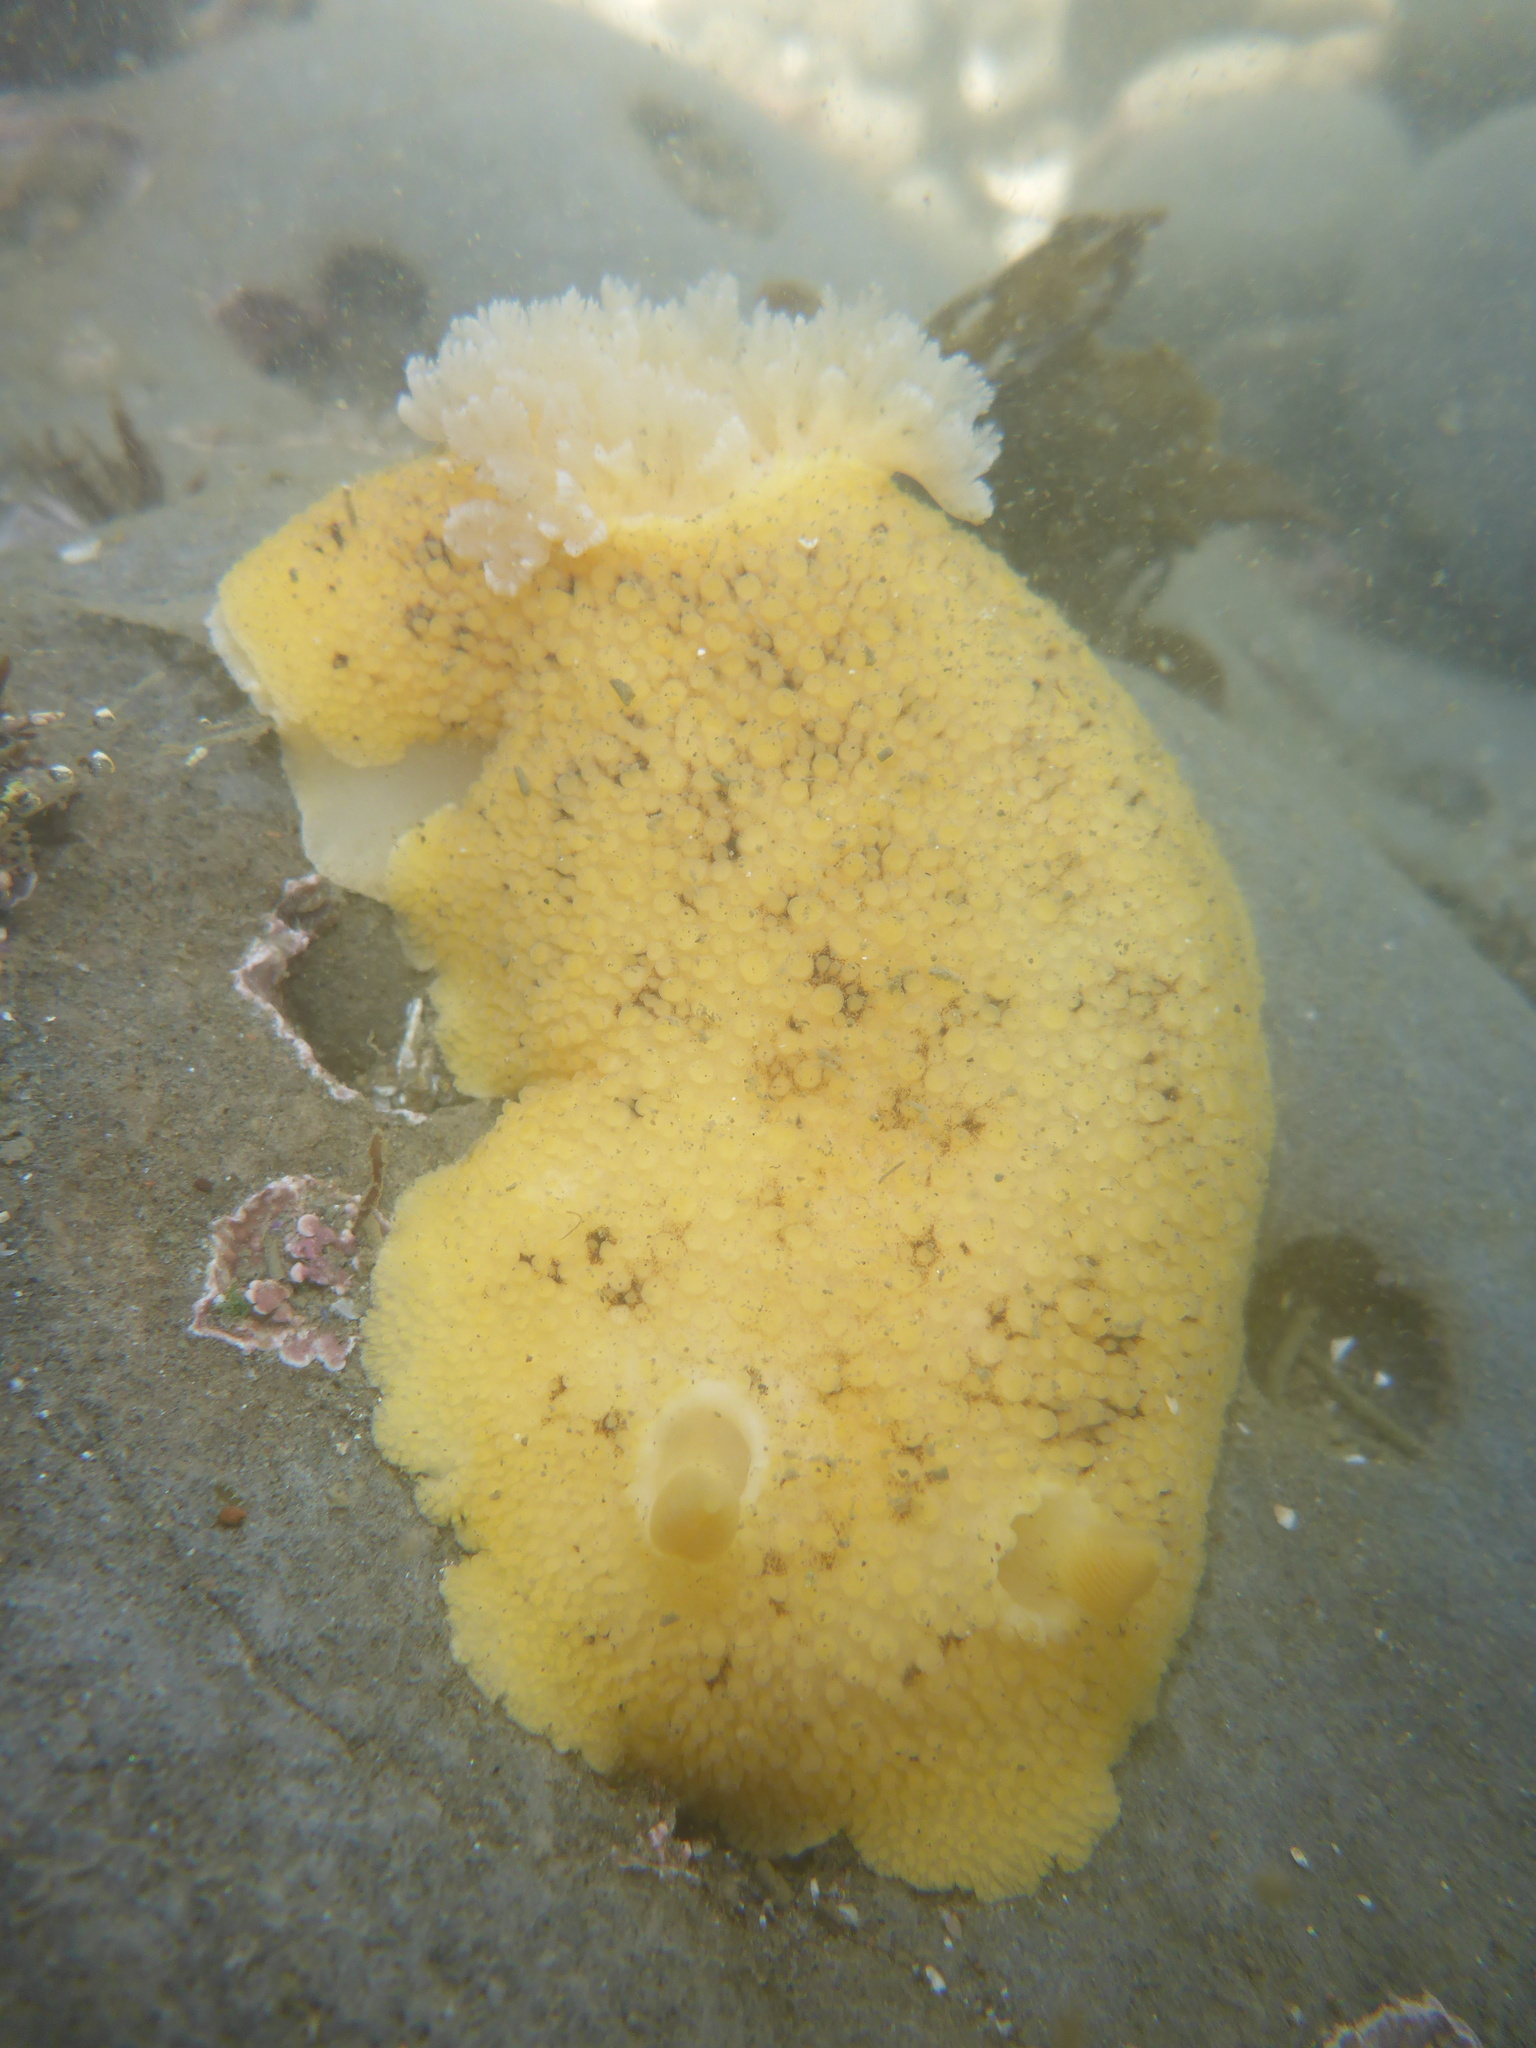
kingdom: Animalia
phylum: Mollusca
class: Gastropoda
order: Nudibranchia
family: Discodorididae
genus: Peltodoris
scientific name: Peltodoris nobilis
